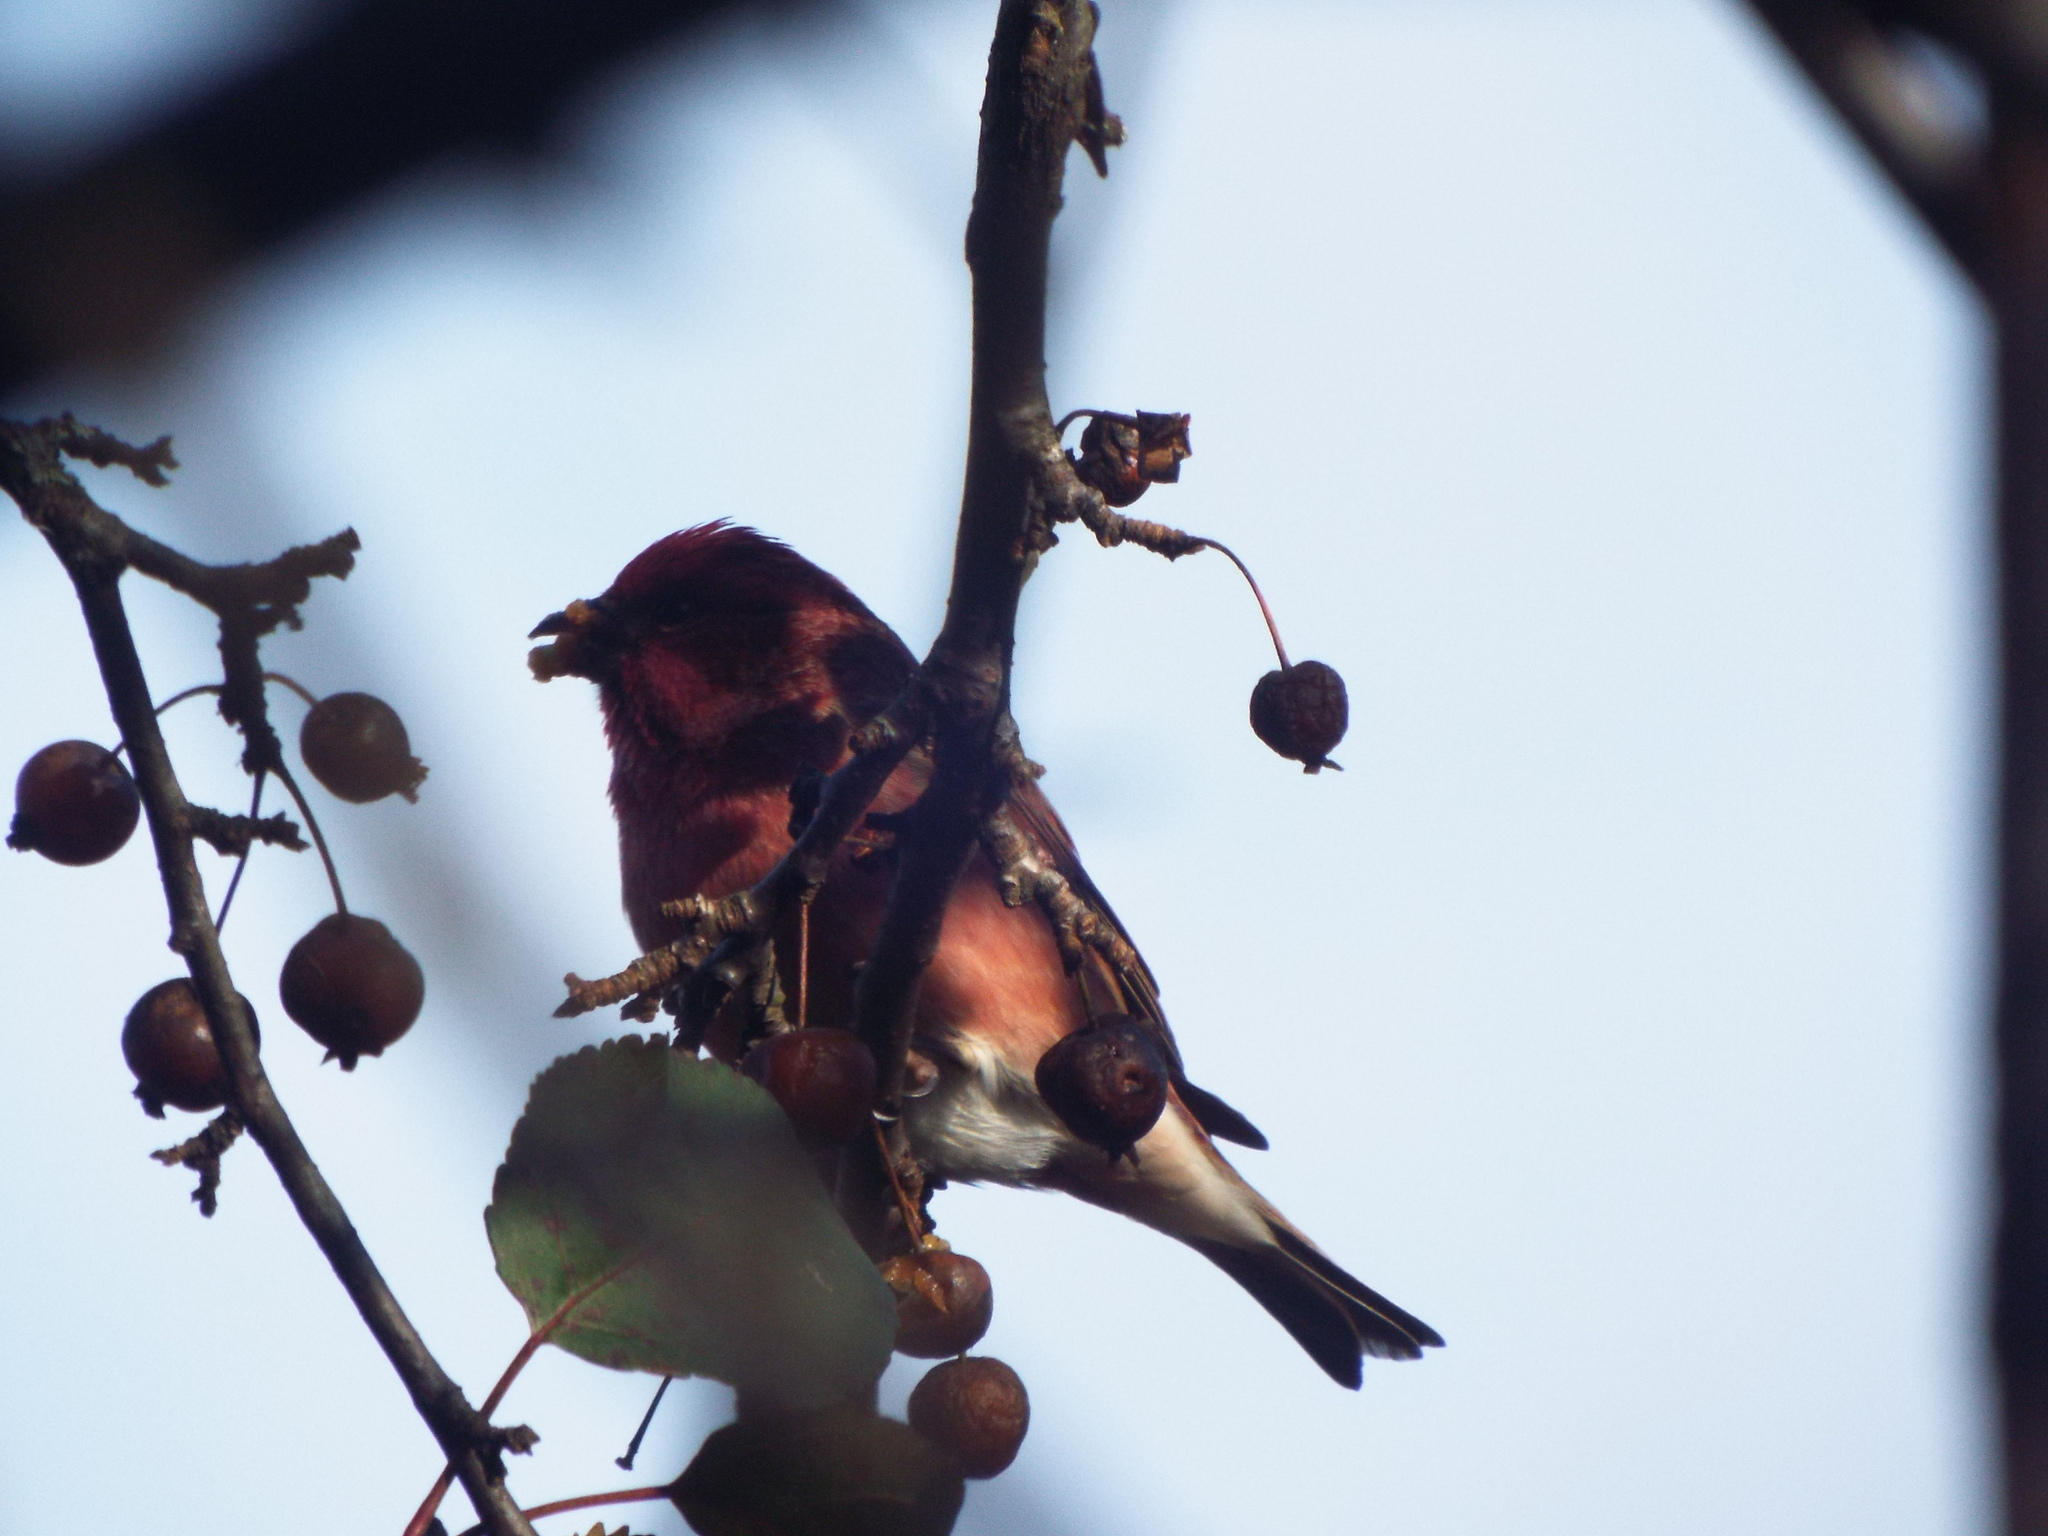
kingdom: Animalia
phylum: Chordata
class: Aves
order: Passeriformes
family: Fringillidae
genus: Haemorhous
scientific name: Haemorhous purpureus
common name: Purple finch
